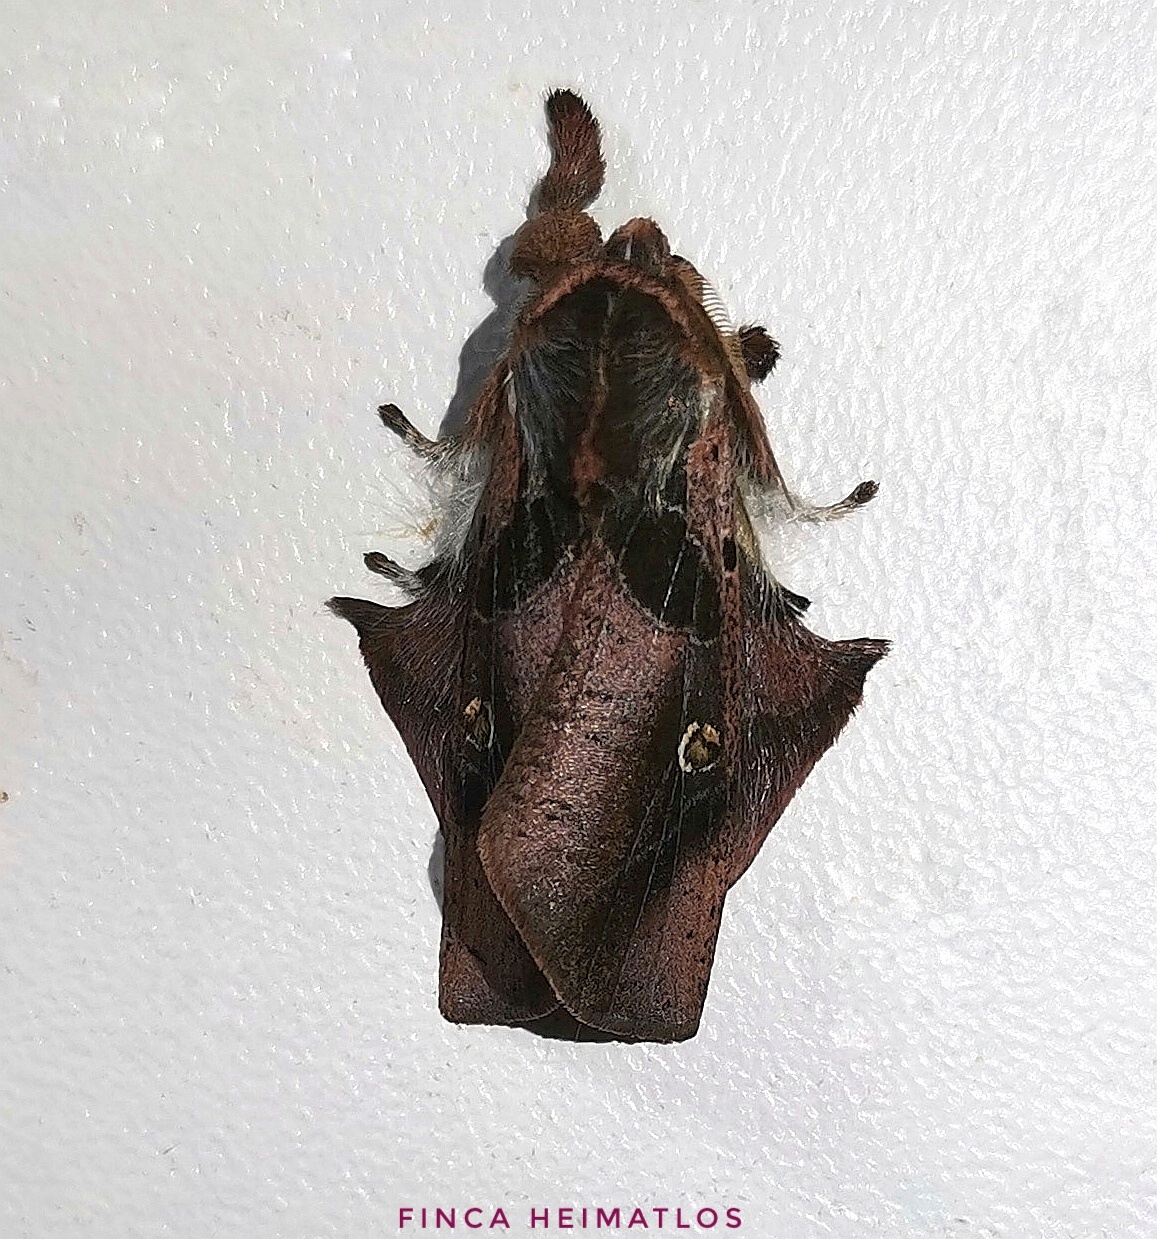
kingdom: Animalia
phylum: Arthropoda
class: Insecta
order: Lepidoptera
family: Erebidae
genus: Desmoloma
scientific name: Desmoloma signata
